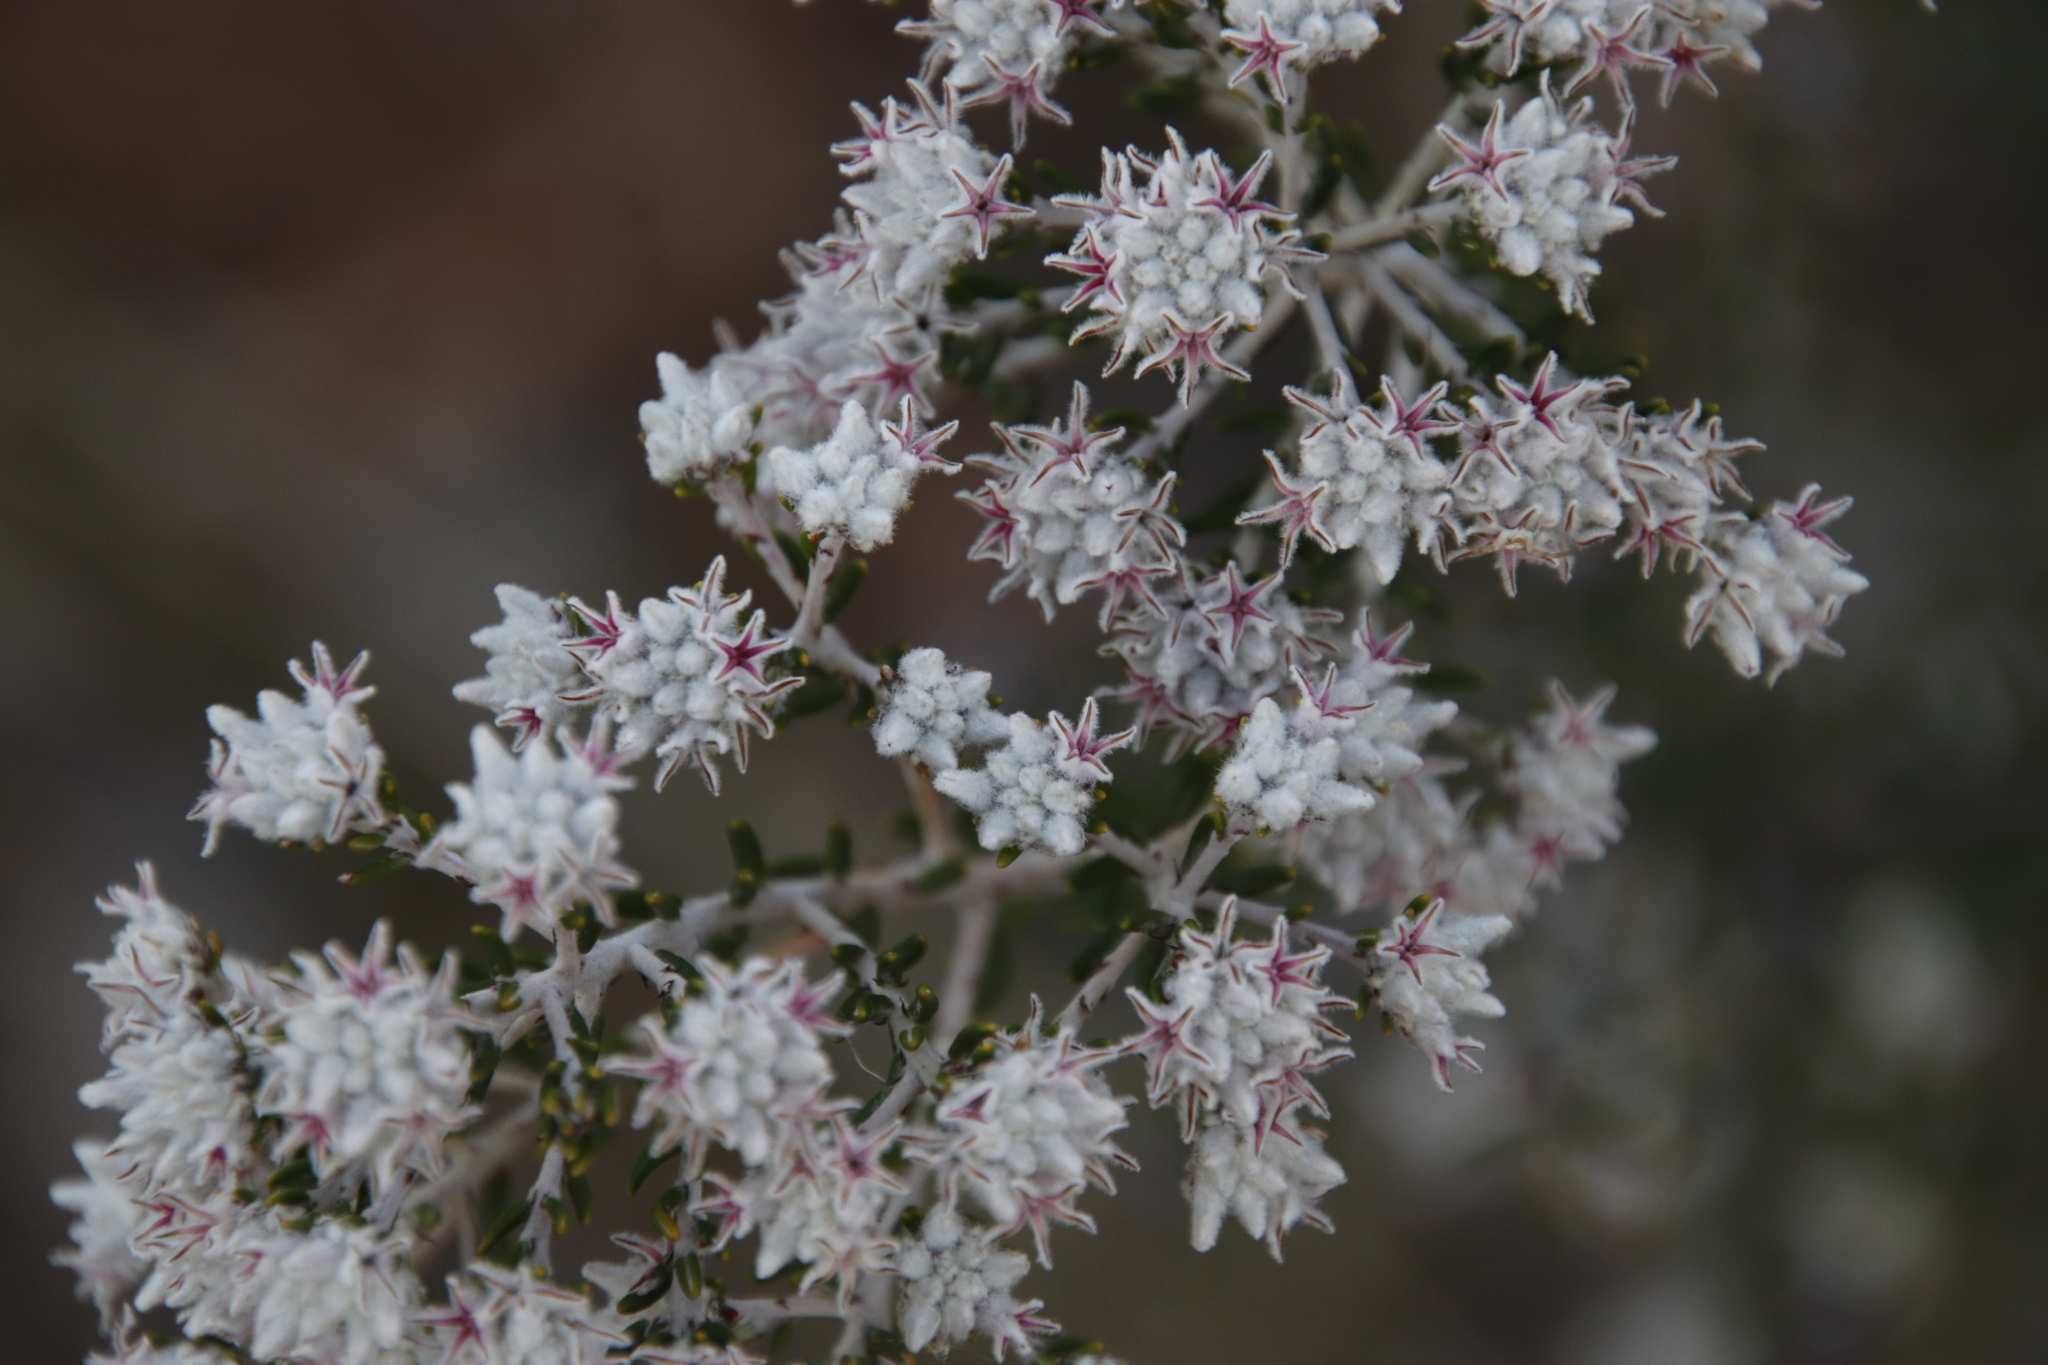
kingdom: Plantae
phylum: Tracheophyta
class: Magnoliopsida
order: Rosales
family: Rhamnaceae
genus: Trichocephalus
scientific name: Trichocephalus stipularis
